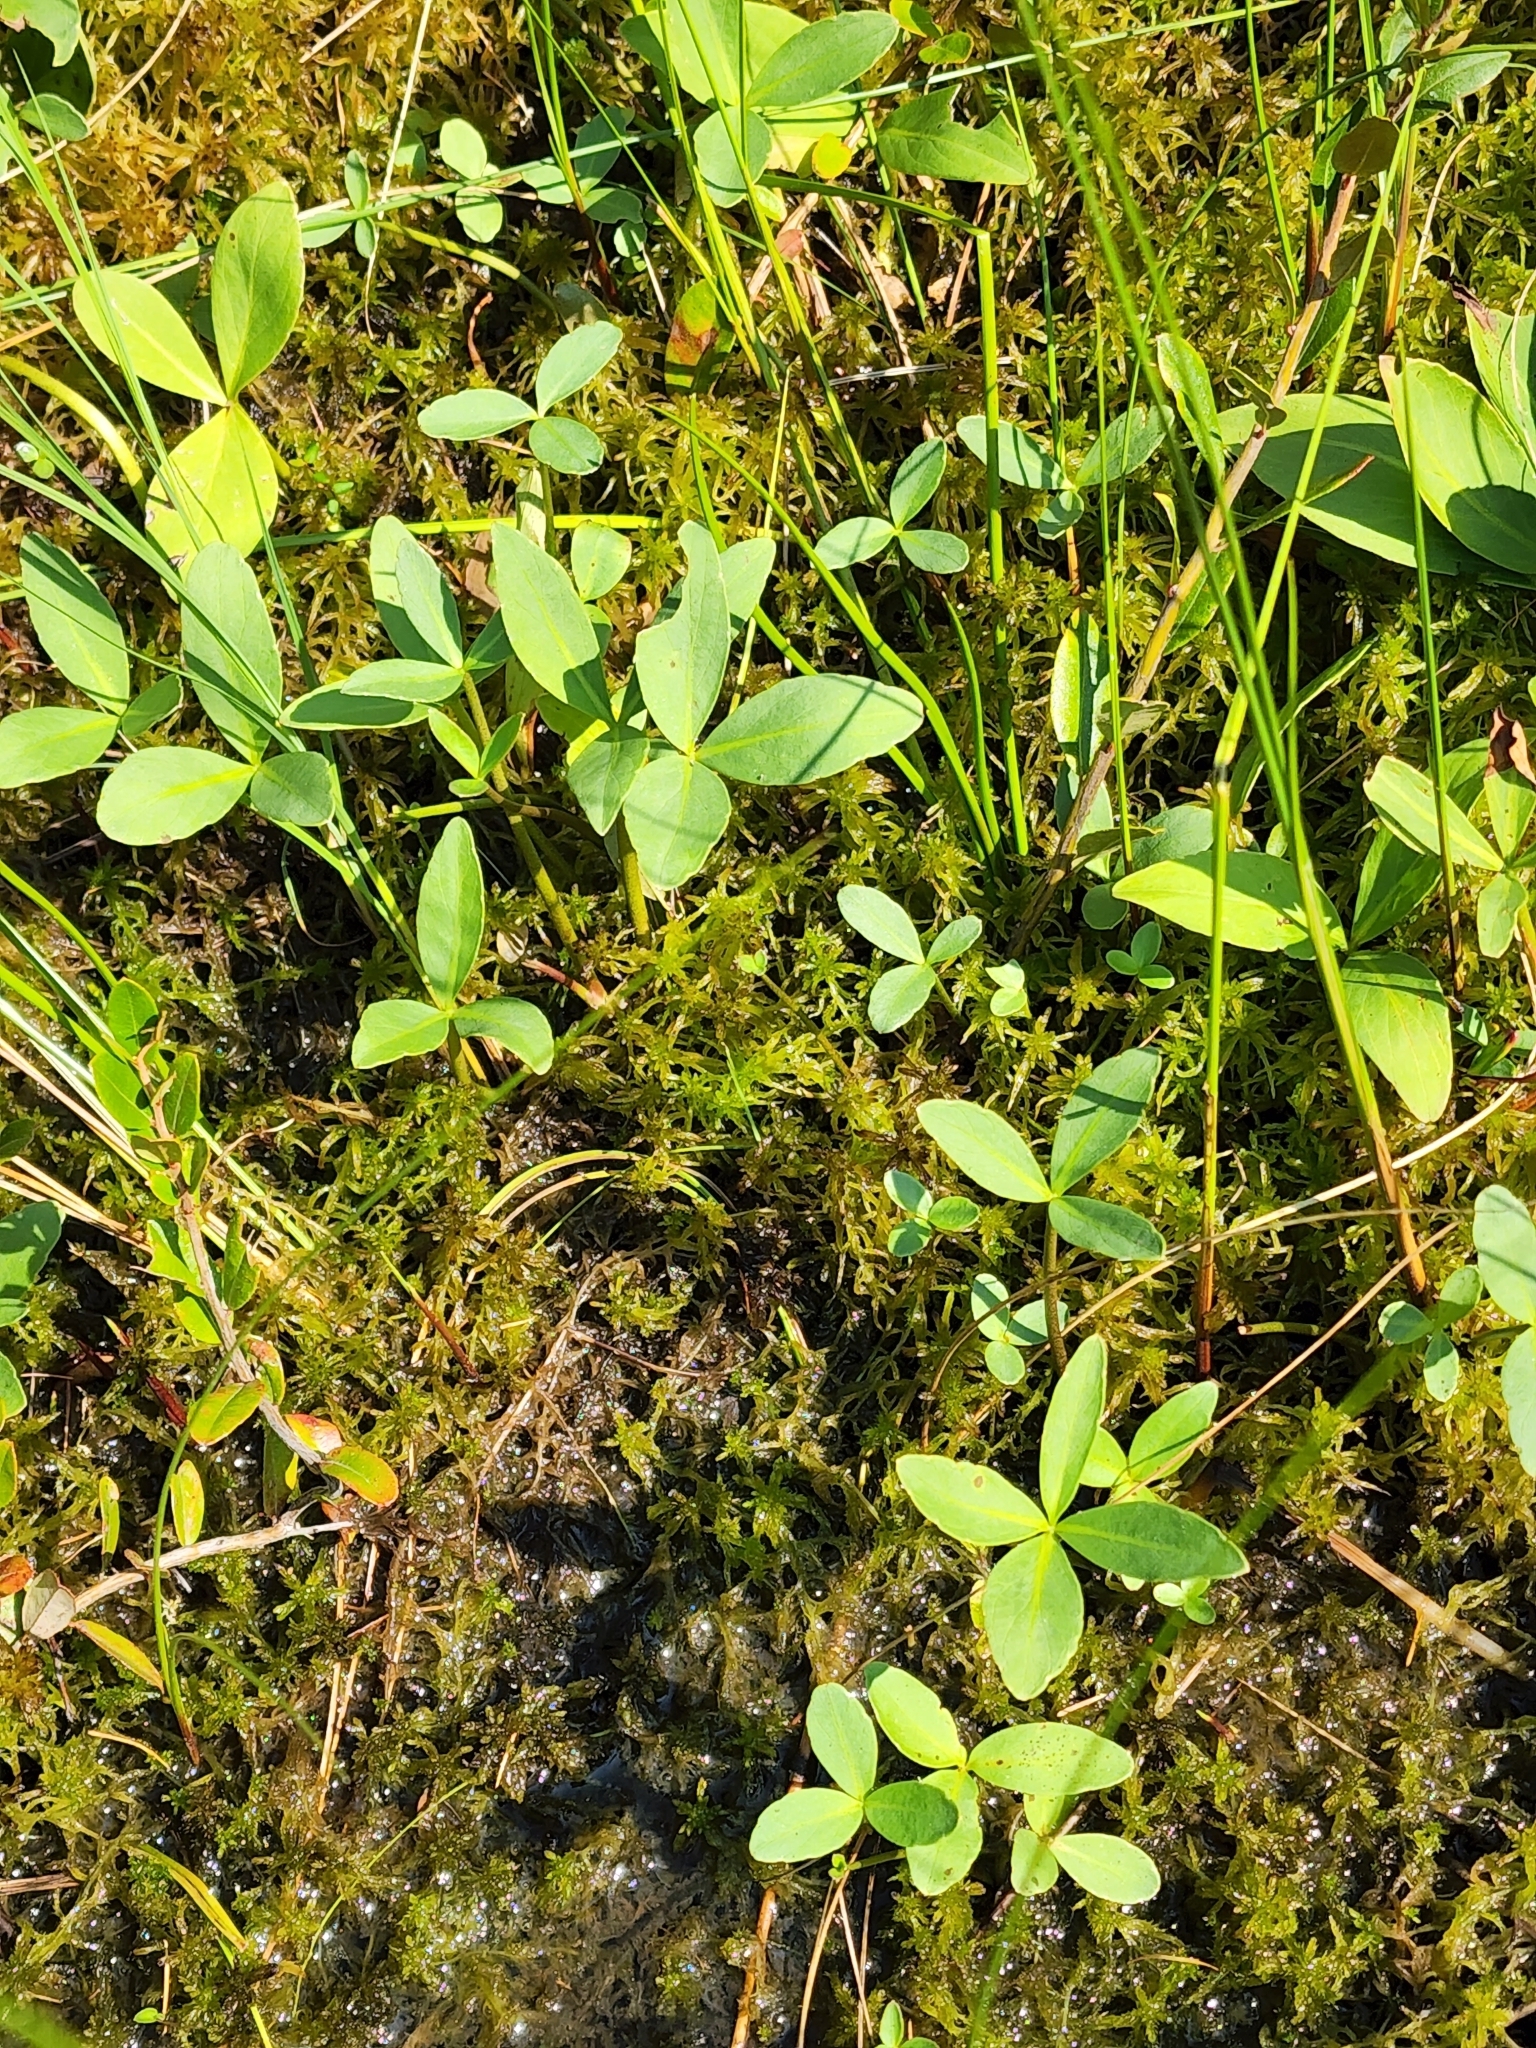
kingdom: Plantae
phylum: Tracheophyta
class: Magnoliopsida
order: Asterales
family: Menyanthaceae
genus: Menyanthes
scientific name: Menyanthes trifoliata
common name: Bogbean
